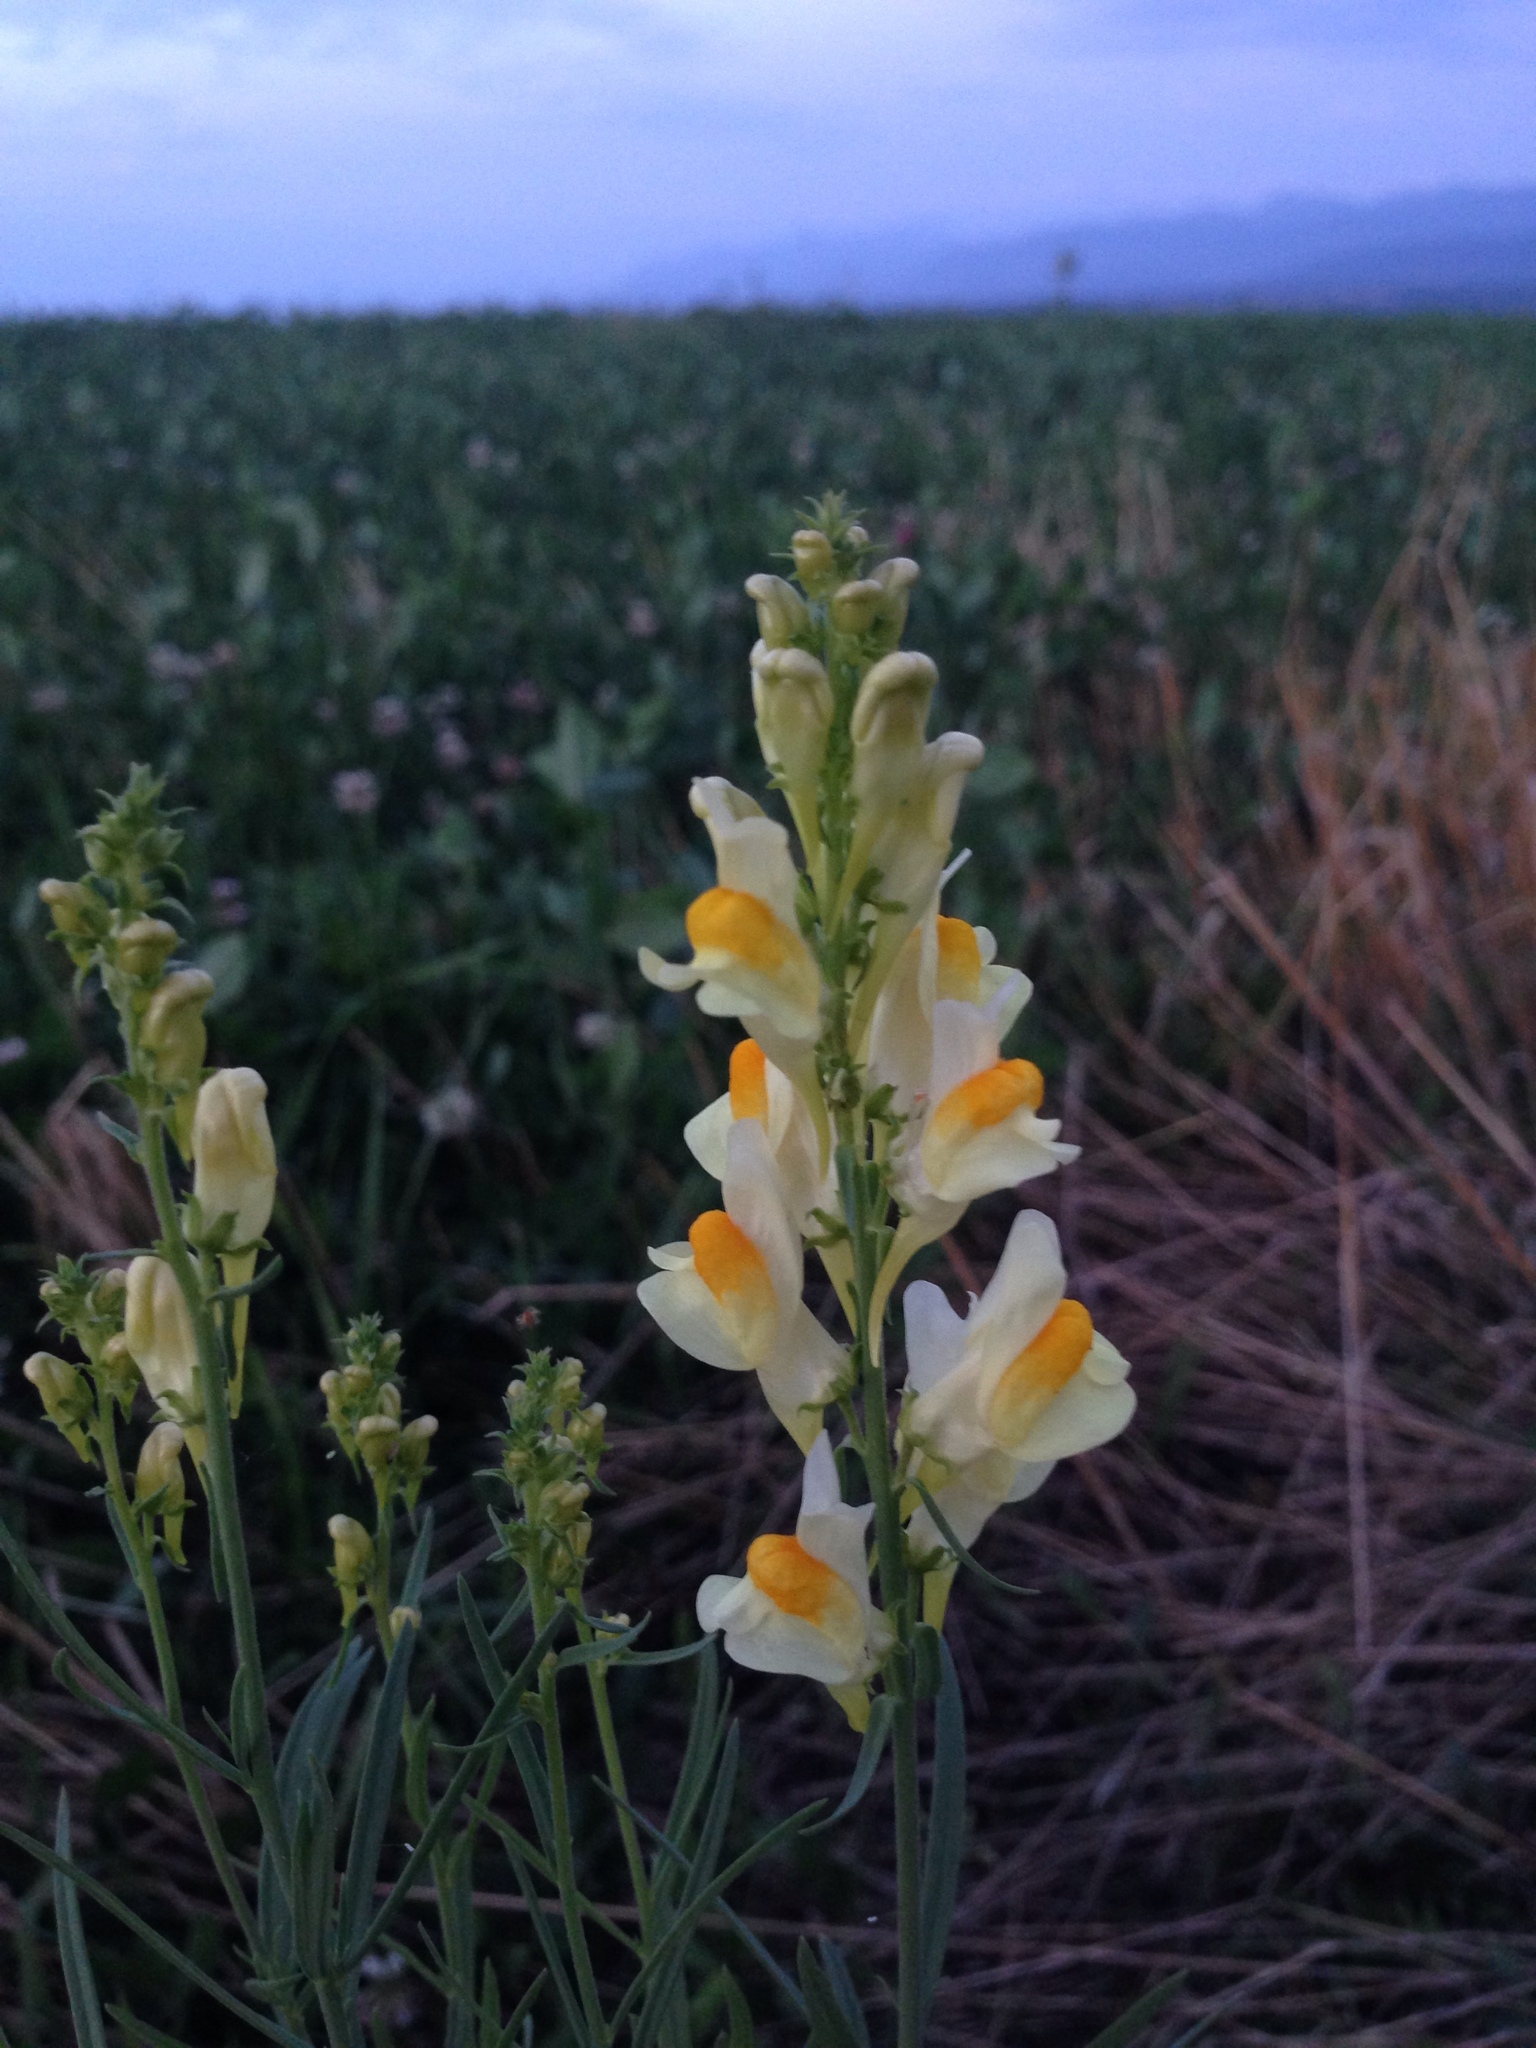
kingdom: Plantae
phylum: Tracheophyta
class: Magnoliopsida
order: Lamiales
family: Plantaginaceae
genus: Linaria
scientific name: Linaria vulgaris
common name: Butter and eggs
